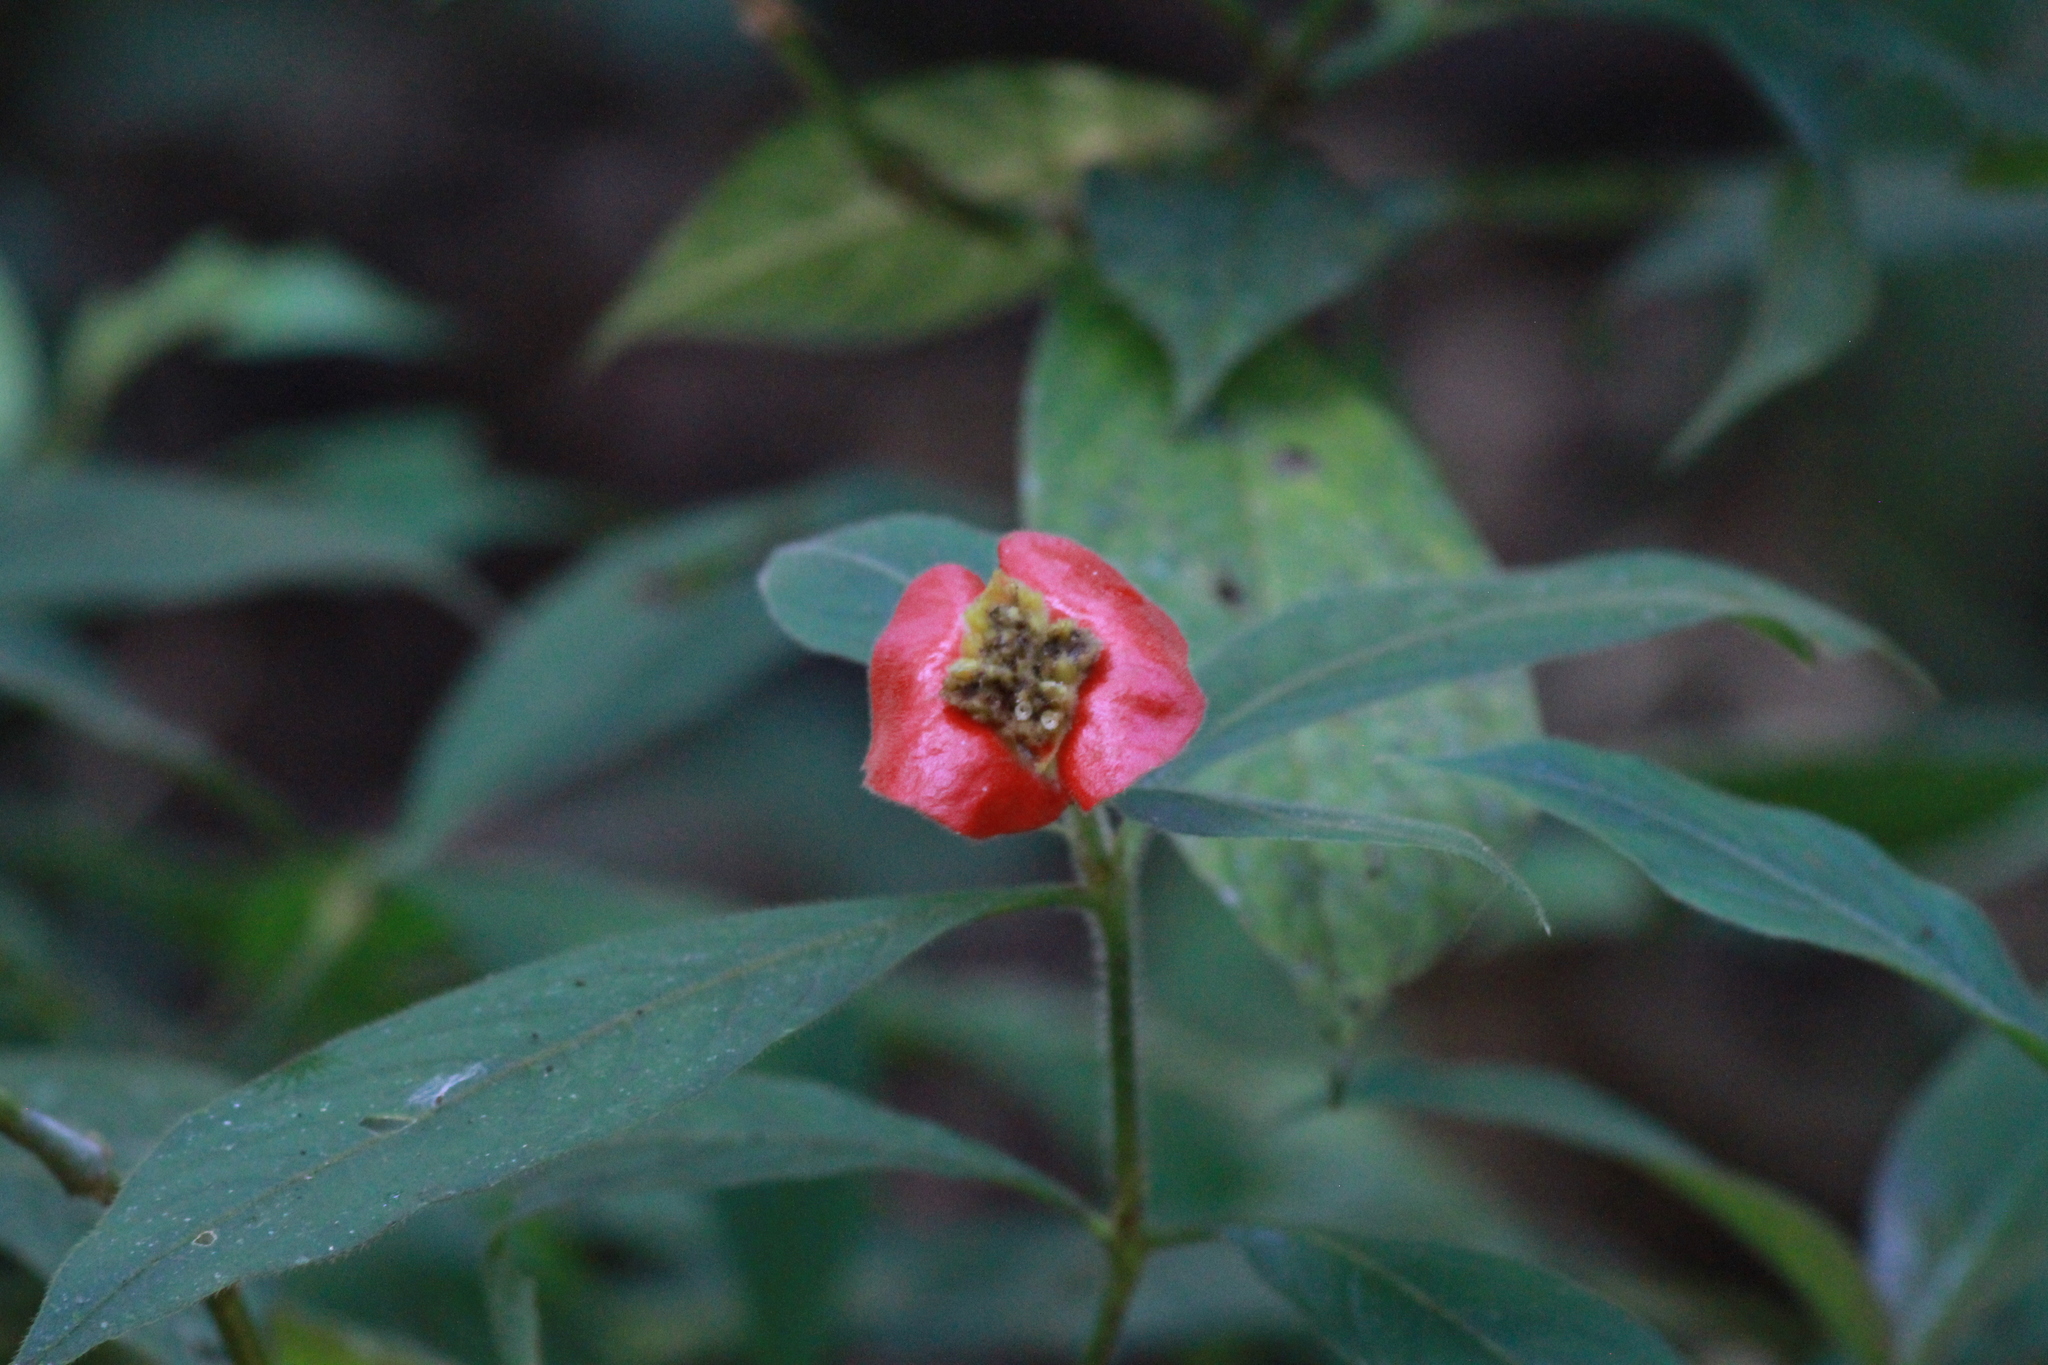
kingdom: Plantae
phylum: Tracheophyta
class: Magnoliopsida
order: Gentianales
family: Rubiaceae
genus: Palicourea
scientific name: Palicourea tomentosa
